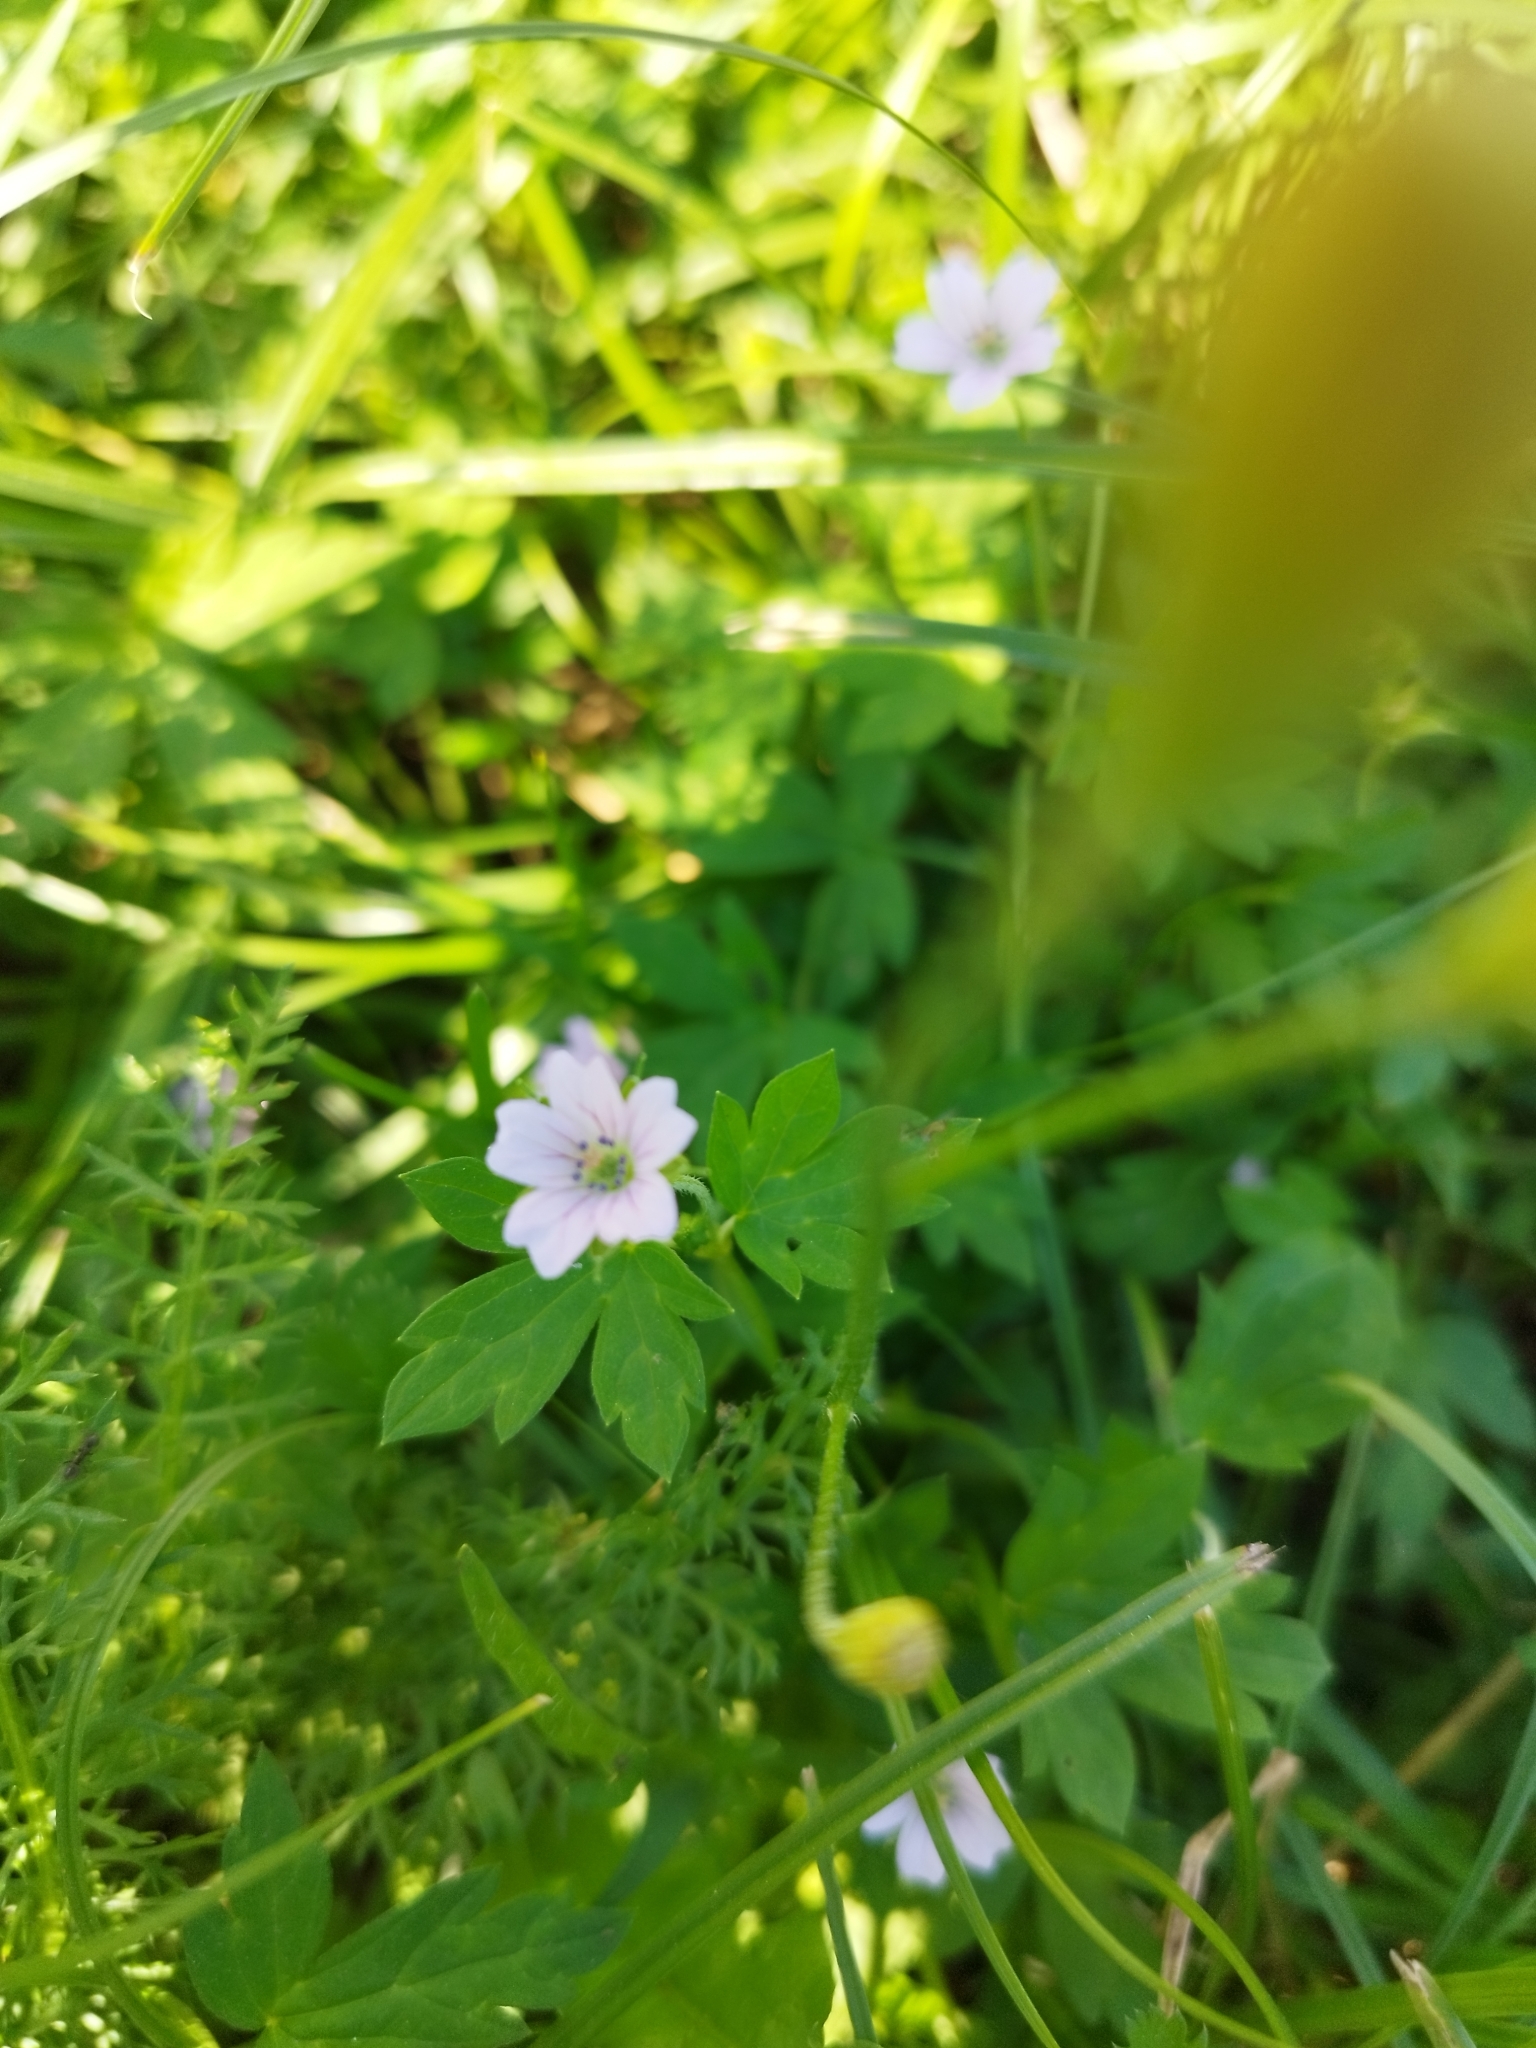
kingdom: Plantae
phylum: Tracheophyta
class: Magnoliopsida
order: Geraniales
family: Geraniaceae
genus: Geranium
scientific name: Geranium sibiricum
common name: Siberian crane's-bill
